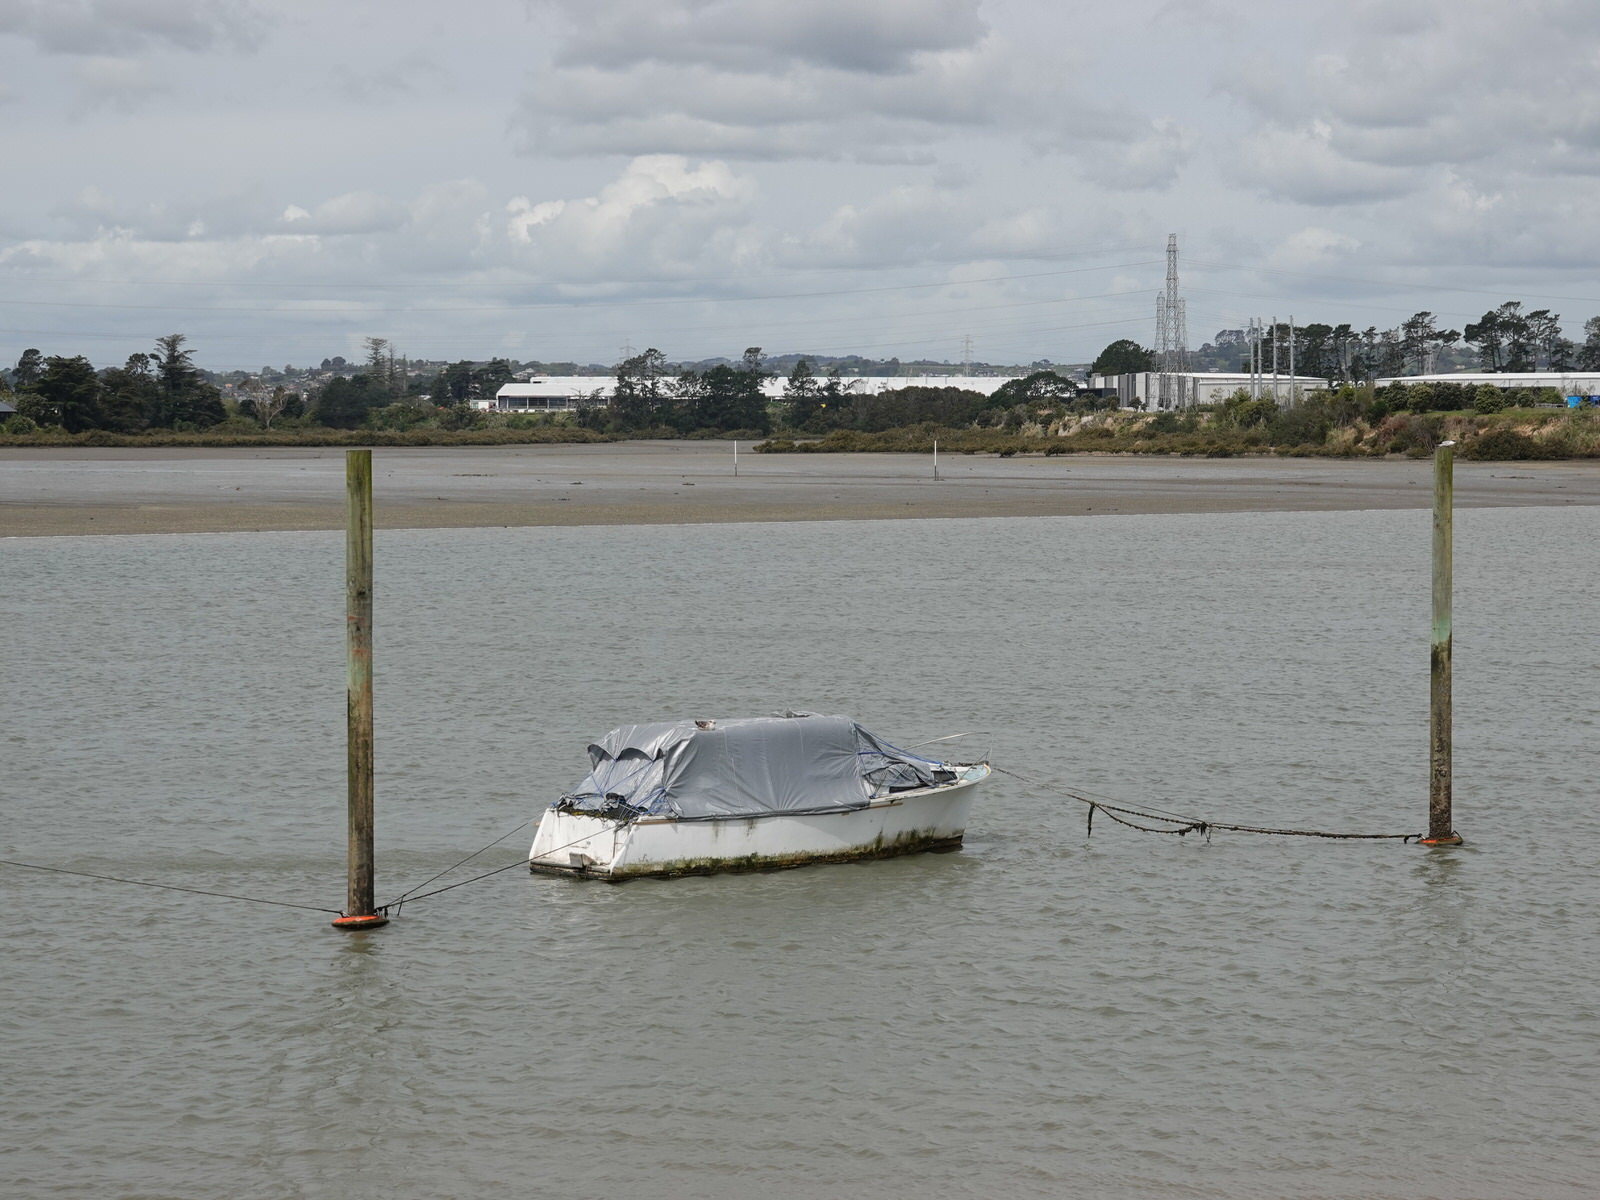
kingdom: Animalia
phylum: Chordata
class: Aves
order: Charadriiformes
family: Laridae
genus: Larus
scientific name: Larus dominicanus
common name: Kelp gull
